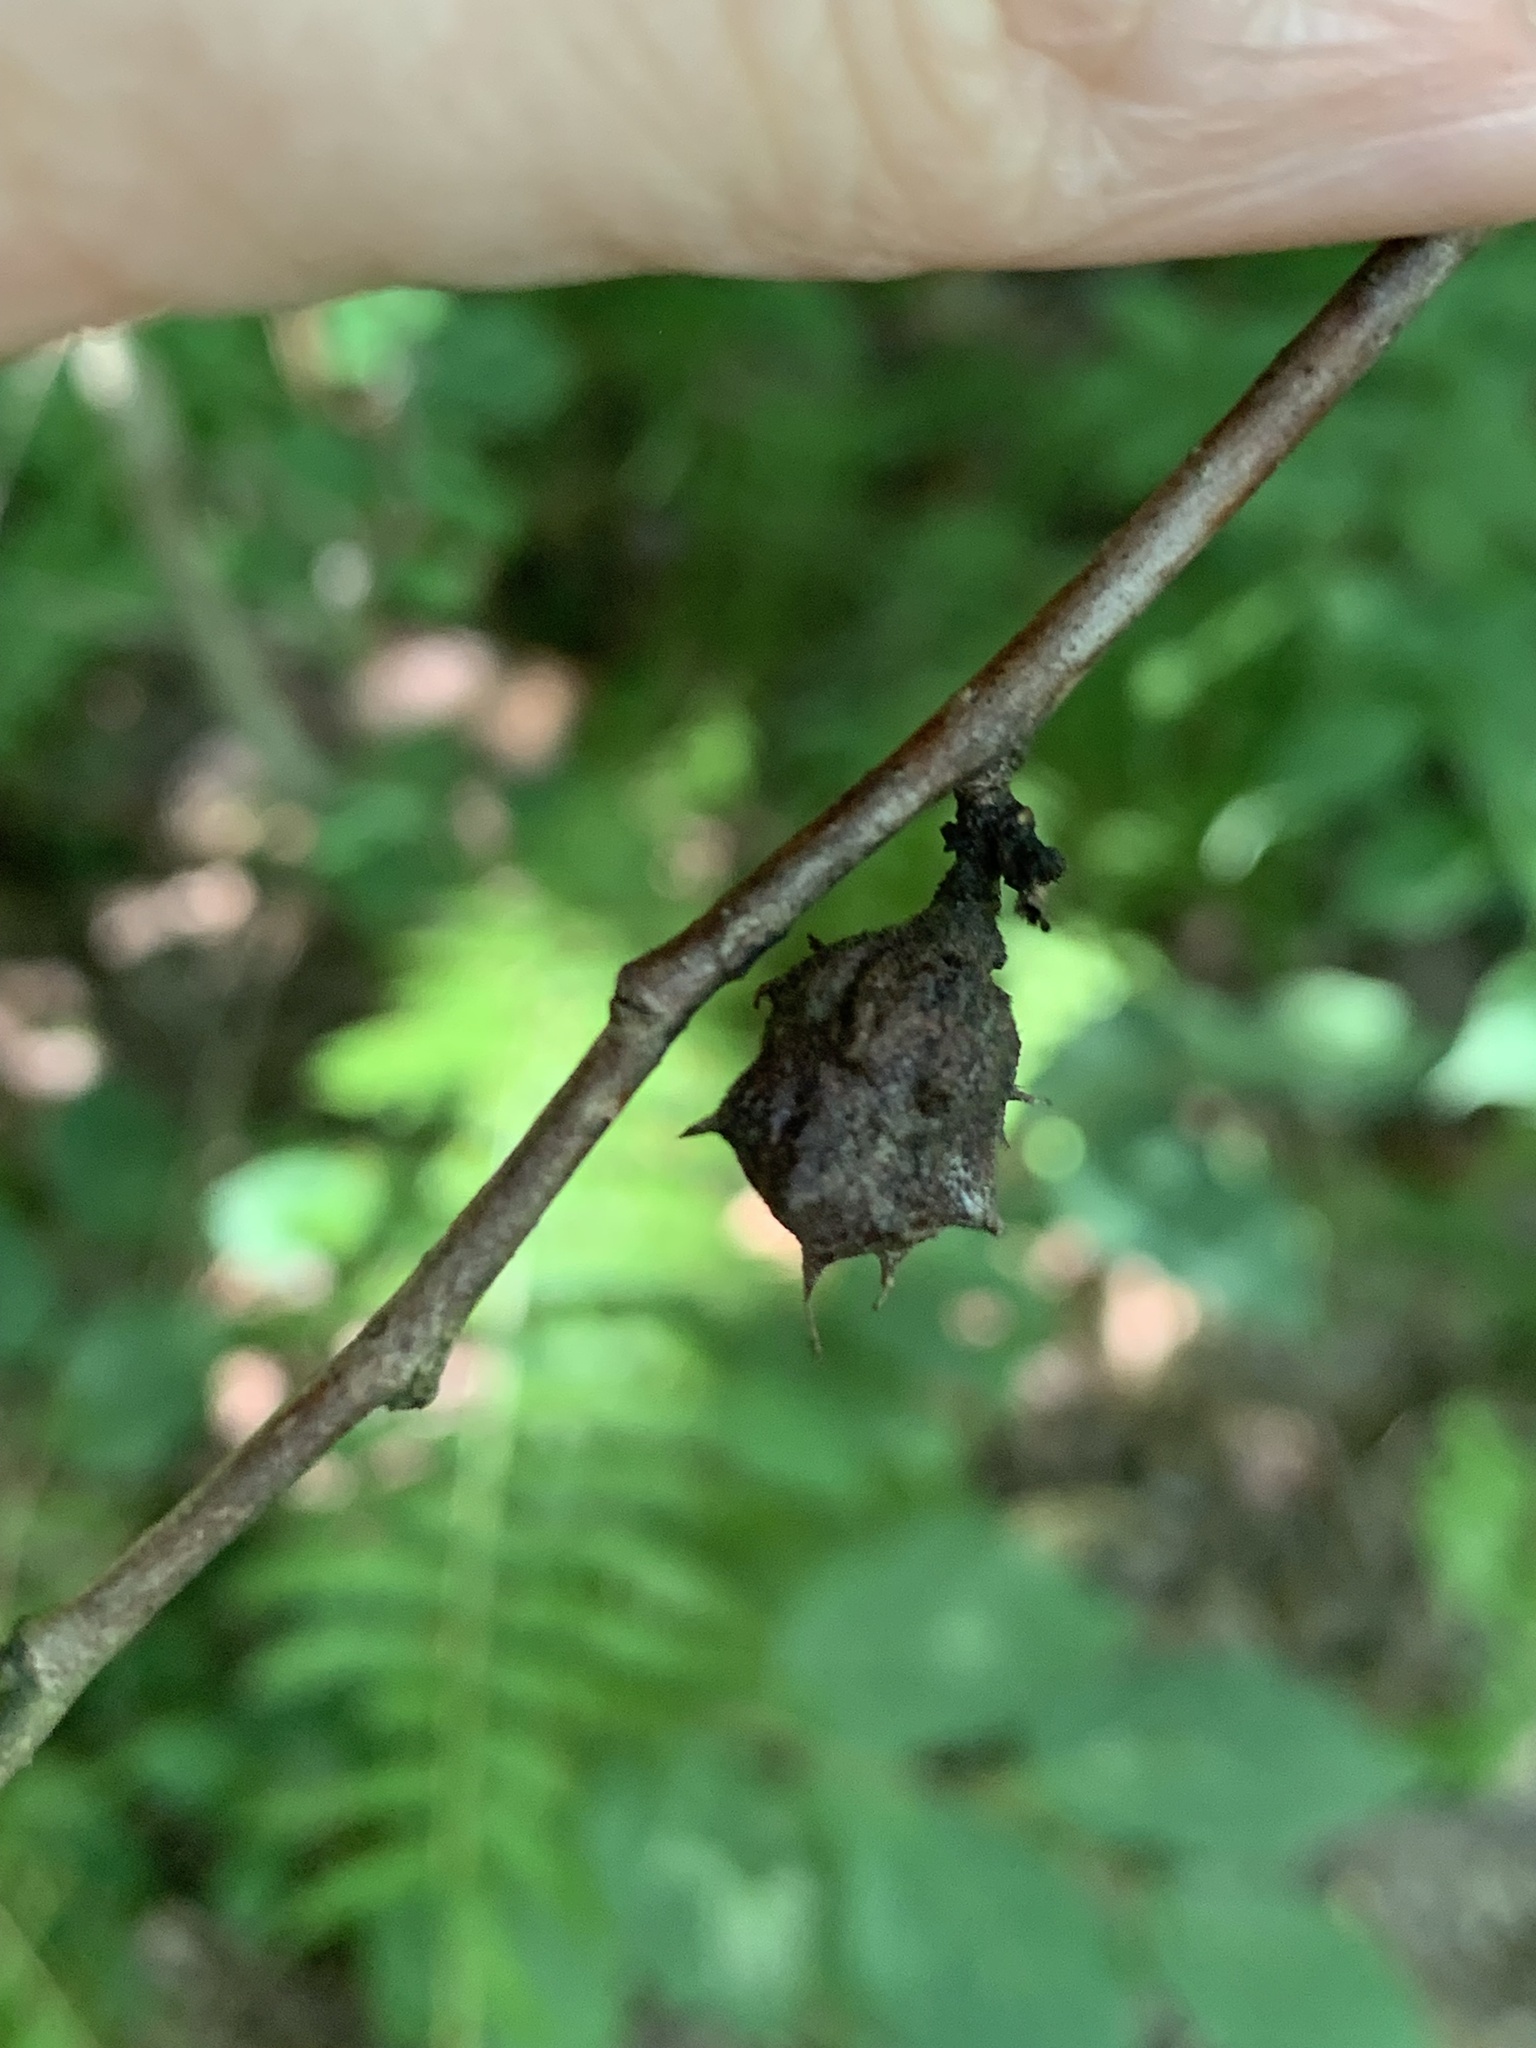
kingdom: Animalia
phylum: Arthropoda
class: Insecta
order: Hemiptera
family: Aphididae
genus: Hamamelistes
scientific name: Hamamelistes spinosus
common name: Witch hazel gall aphid
